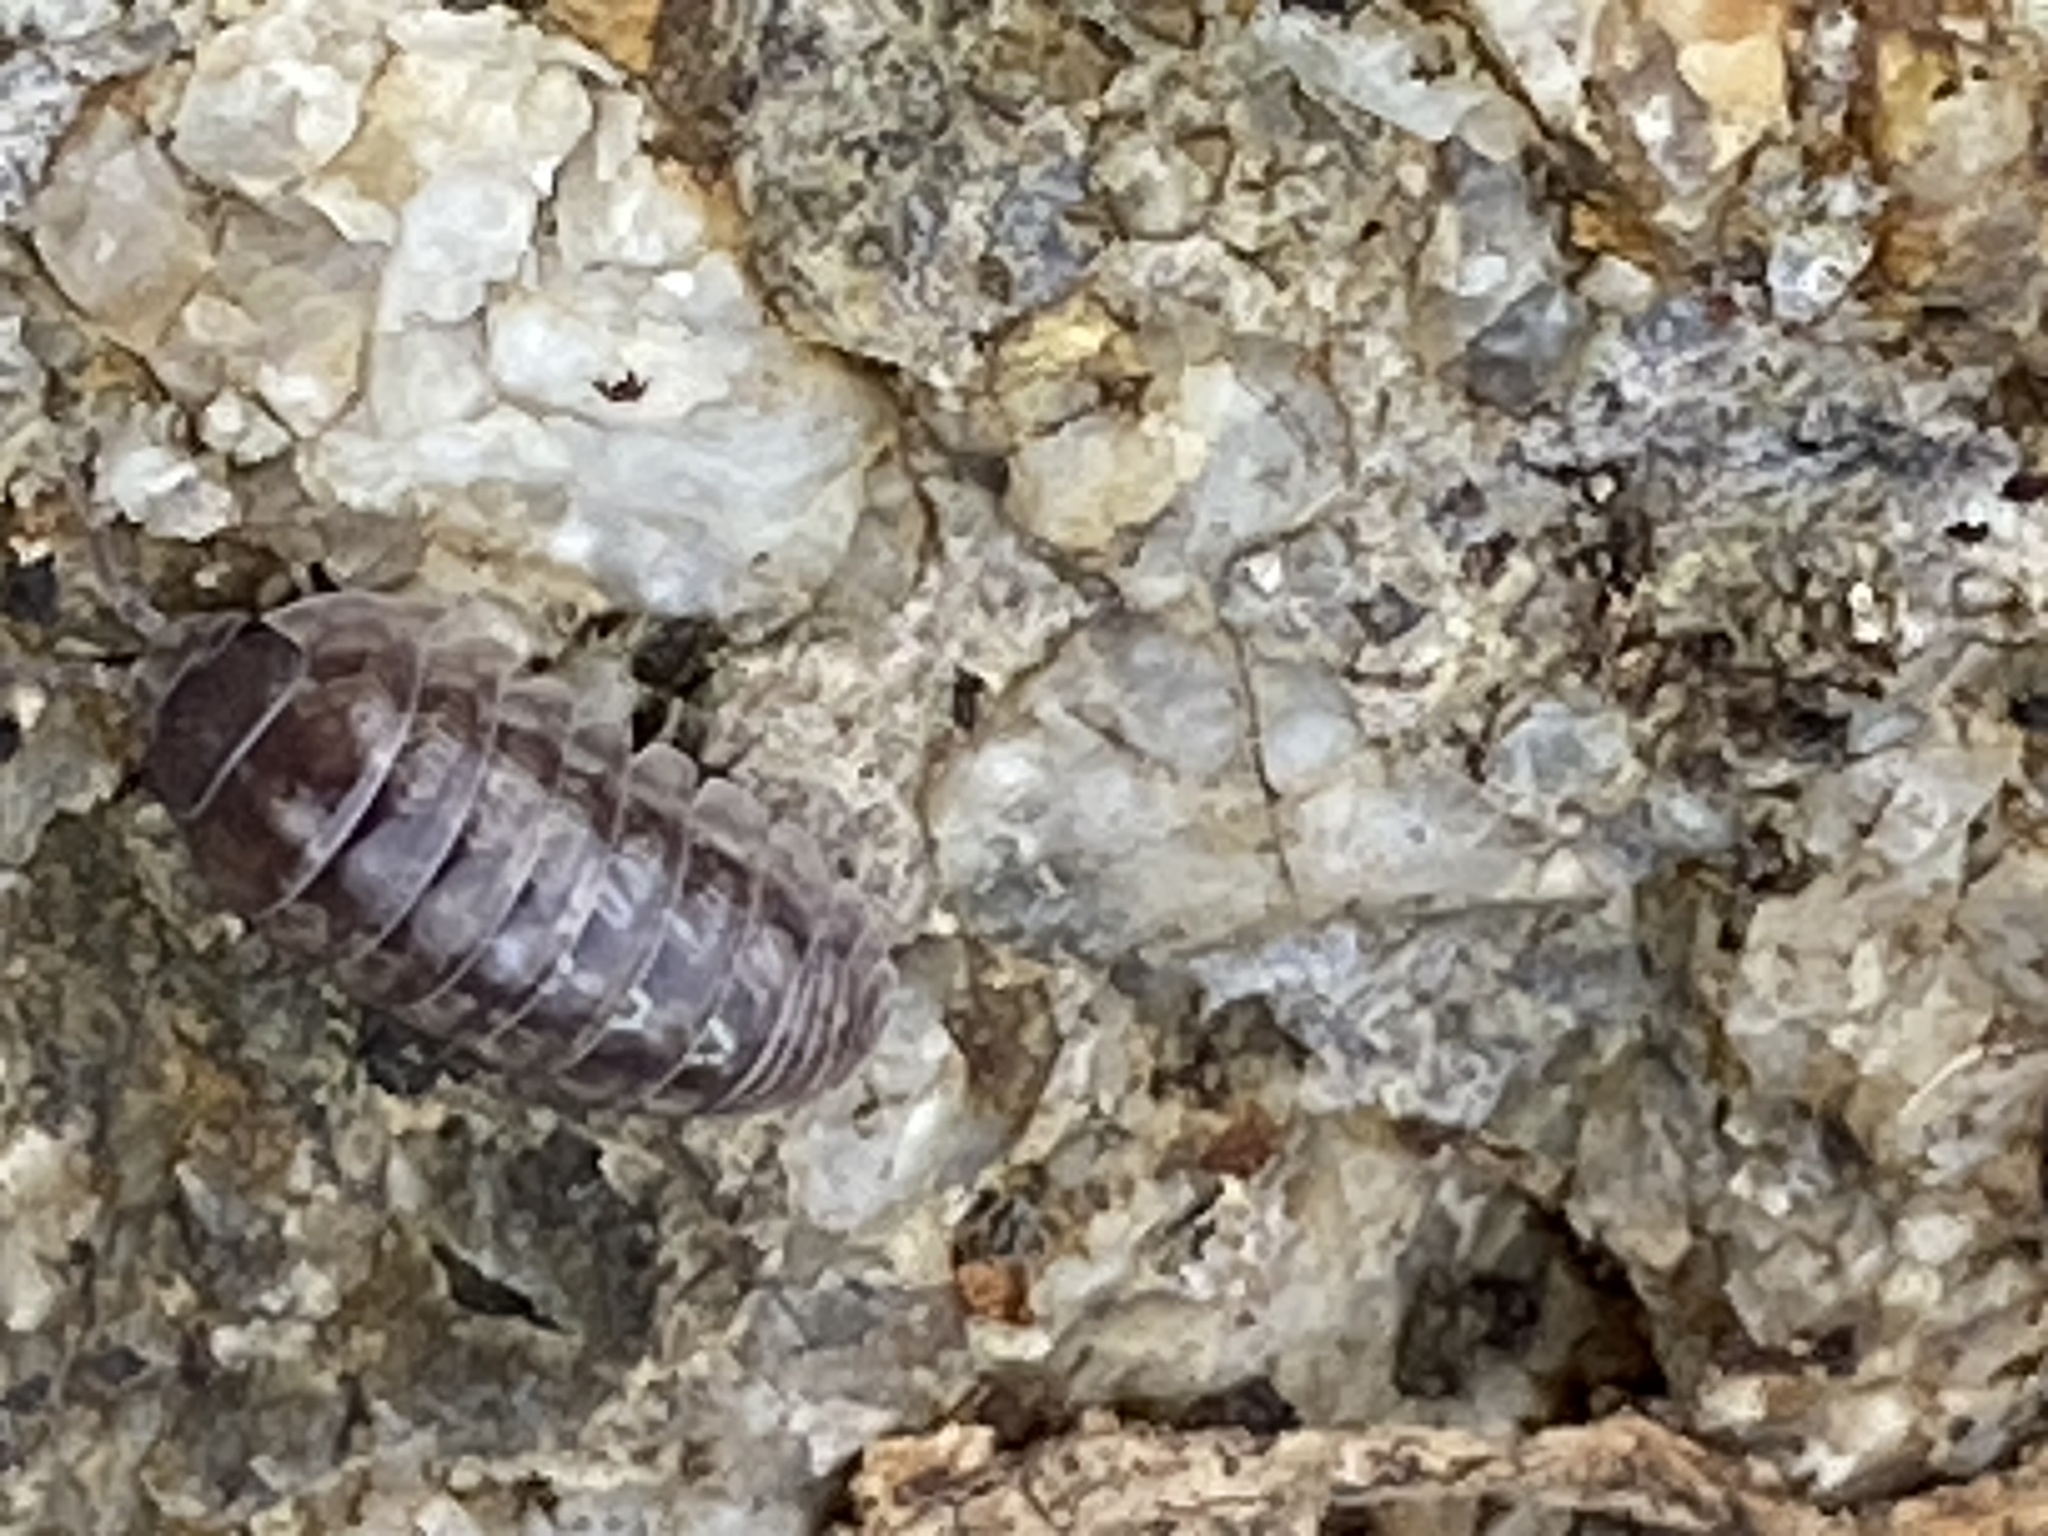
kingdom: Animalia
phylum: Arthropoda
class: Malacostraca
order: Isopoda
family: Armadillidiidae
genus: Armadillidium
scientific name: Armadillidium vulgare
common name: Common pill woodlouse
